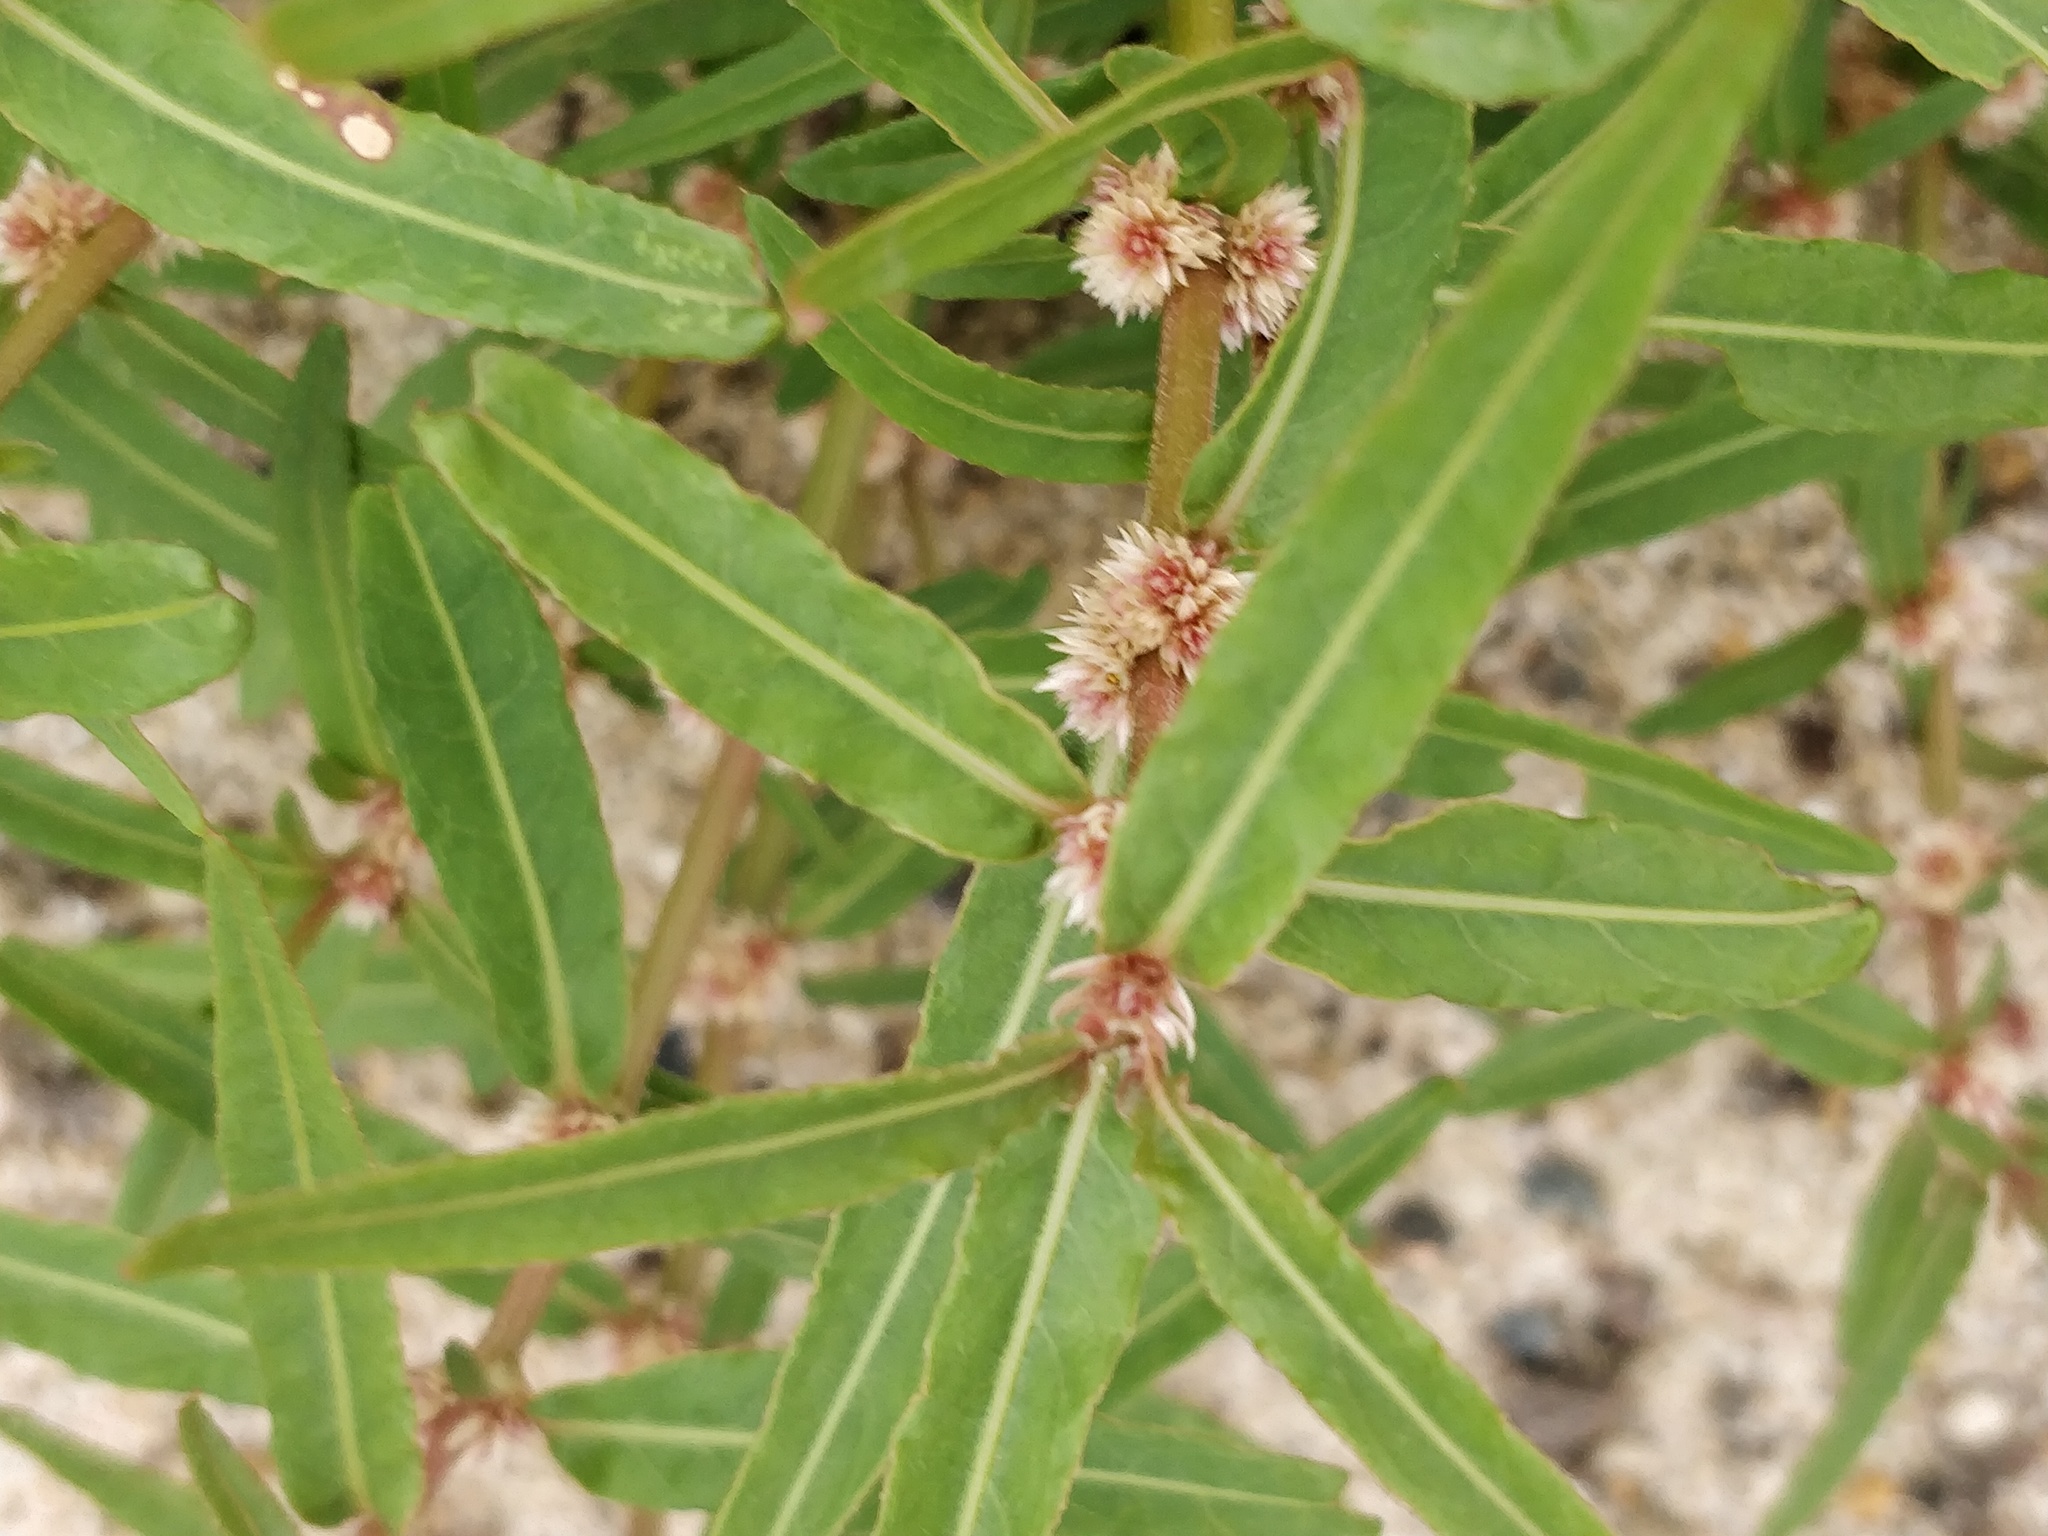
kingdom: Plantae
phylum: Tracheophyta
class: Magnoliopsida
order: Caryophyllales
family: Amaranthaceae
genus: Alternanthera
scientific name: Alternanthera denticulata
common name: Lesser joyweed
